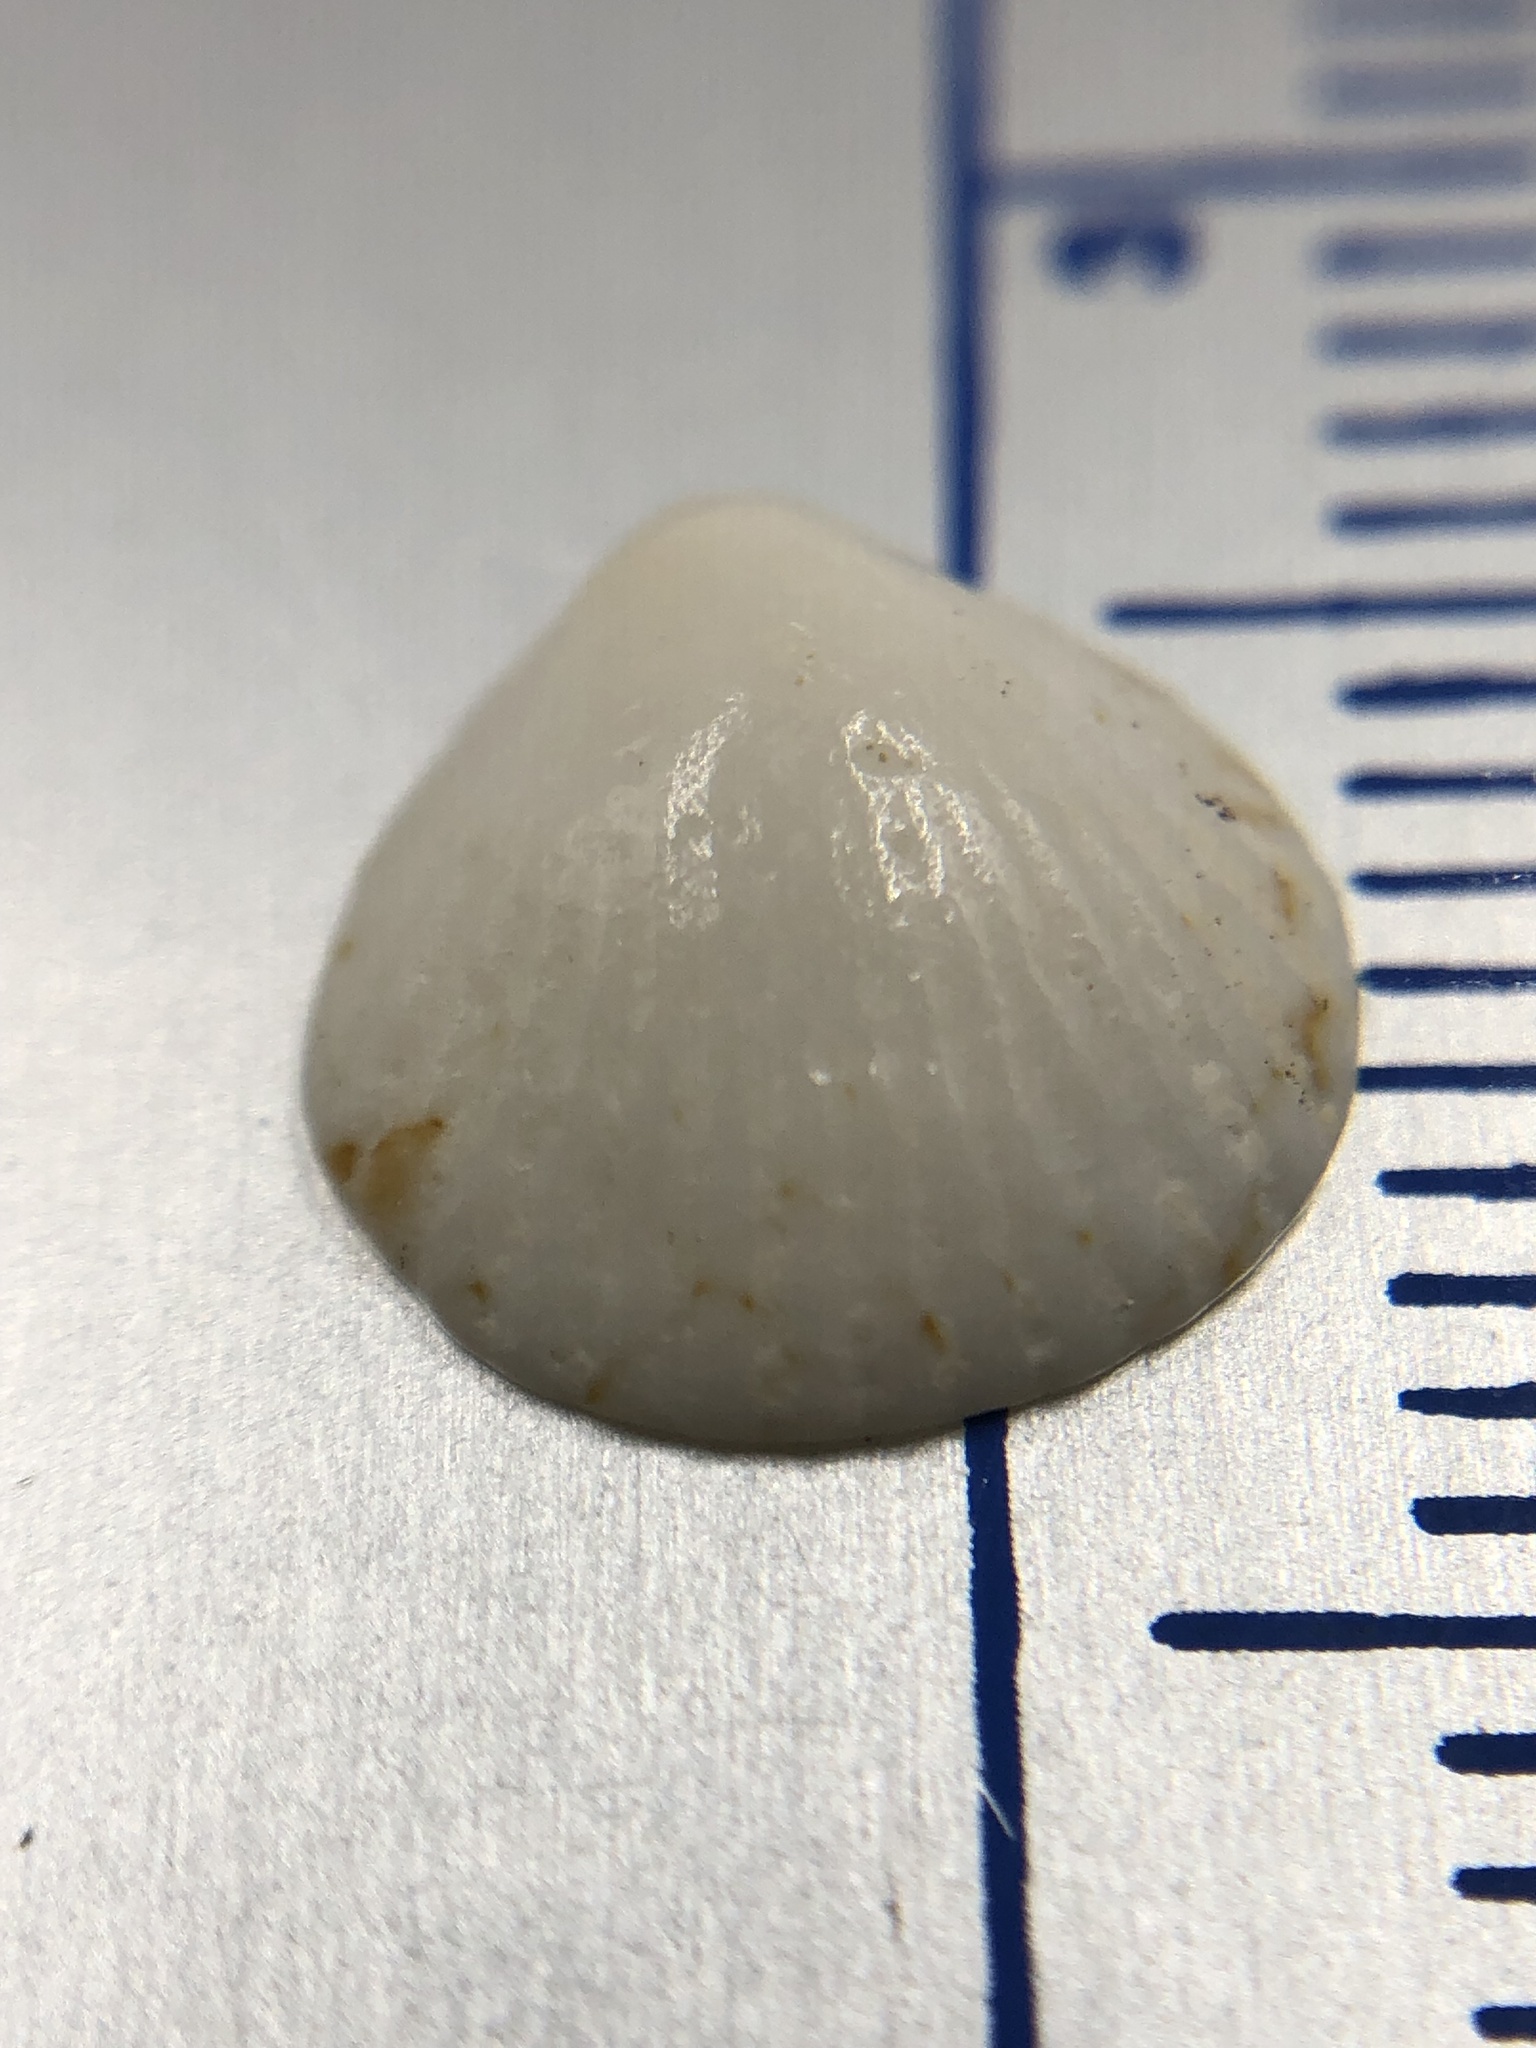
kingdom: Animalia
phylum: Mollusca
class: Bivalvia
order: Arcida
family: Glycymerididae
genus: Tucetona
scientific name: Tucetona pectinata
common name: Comb bittersweet
